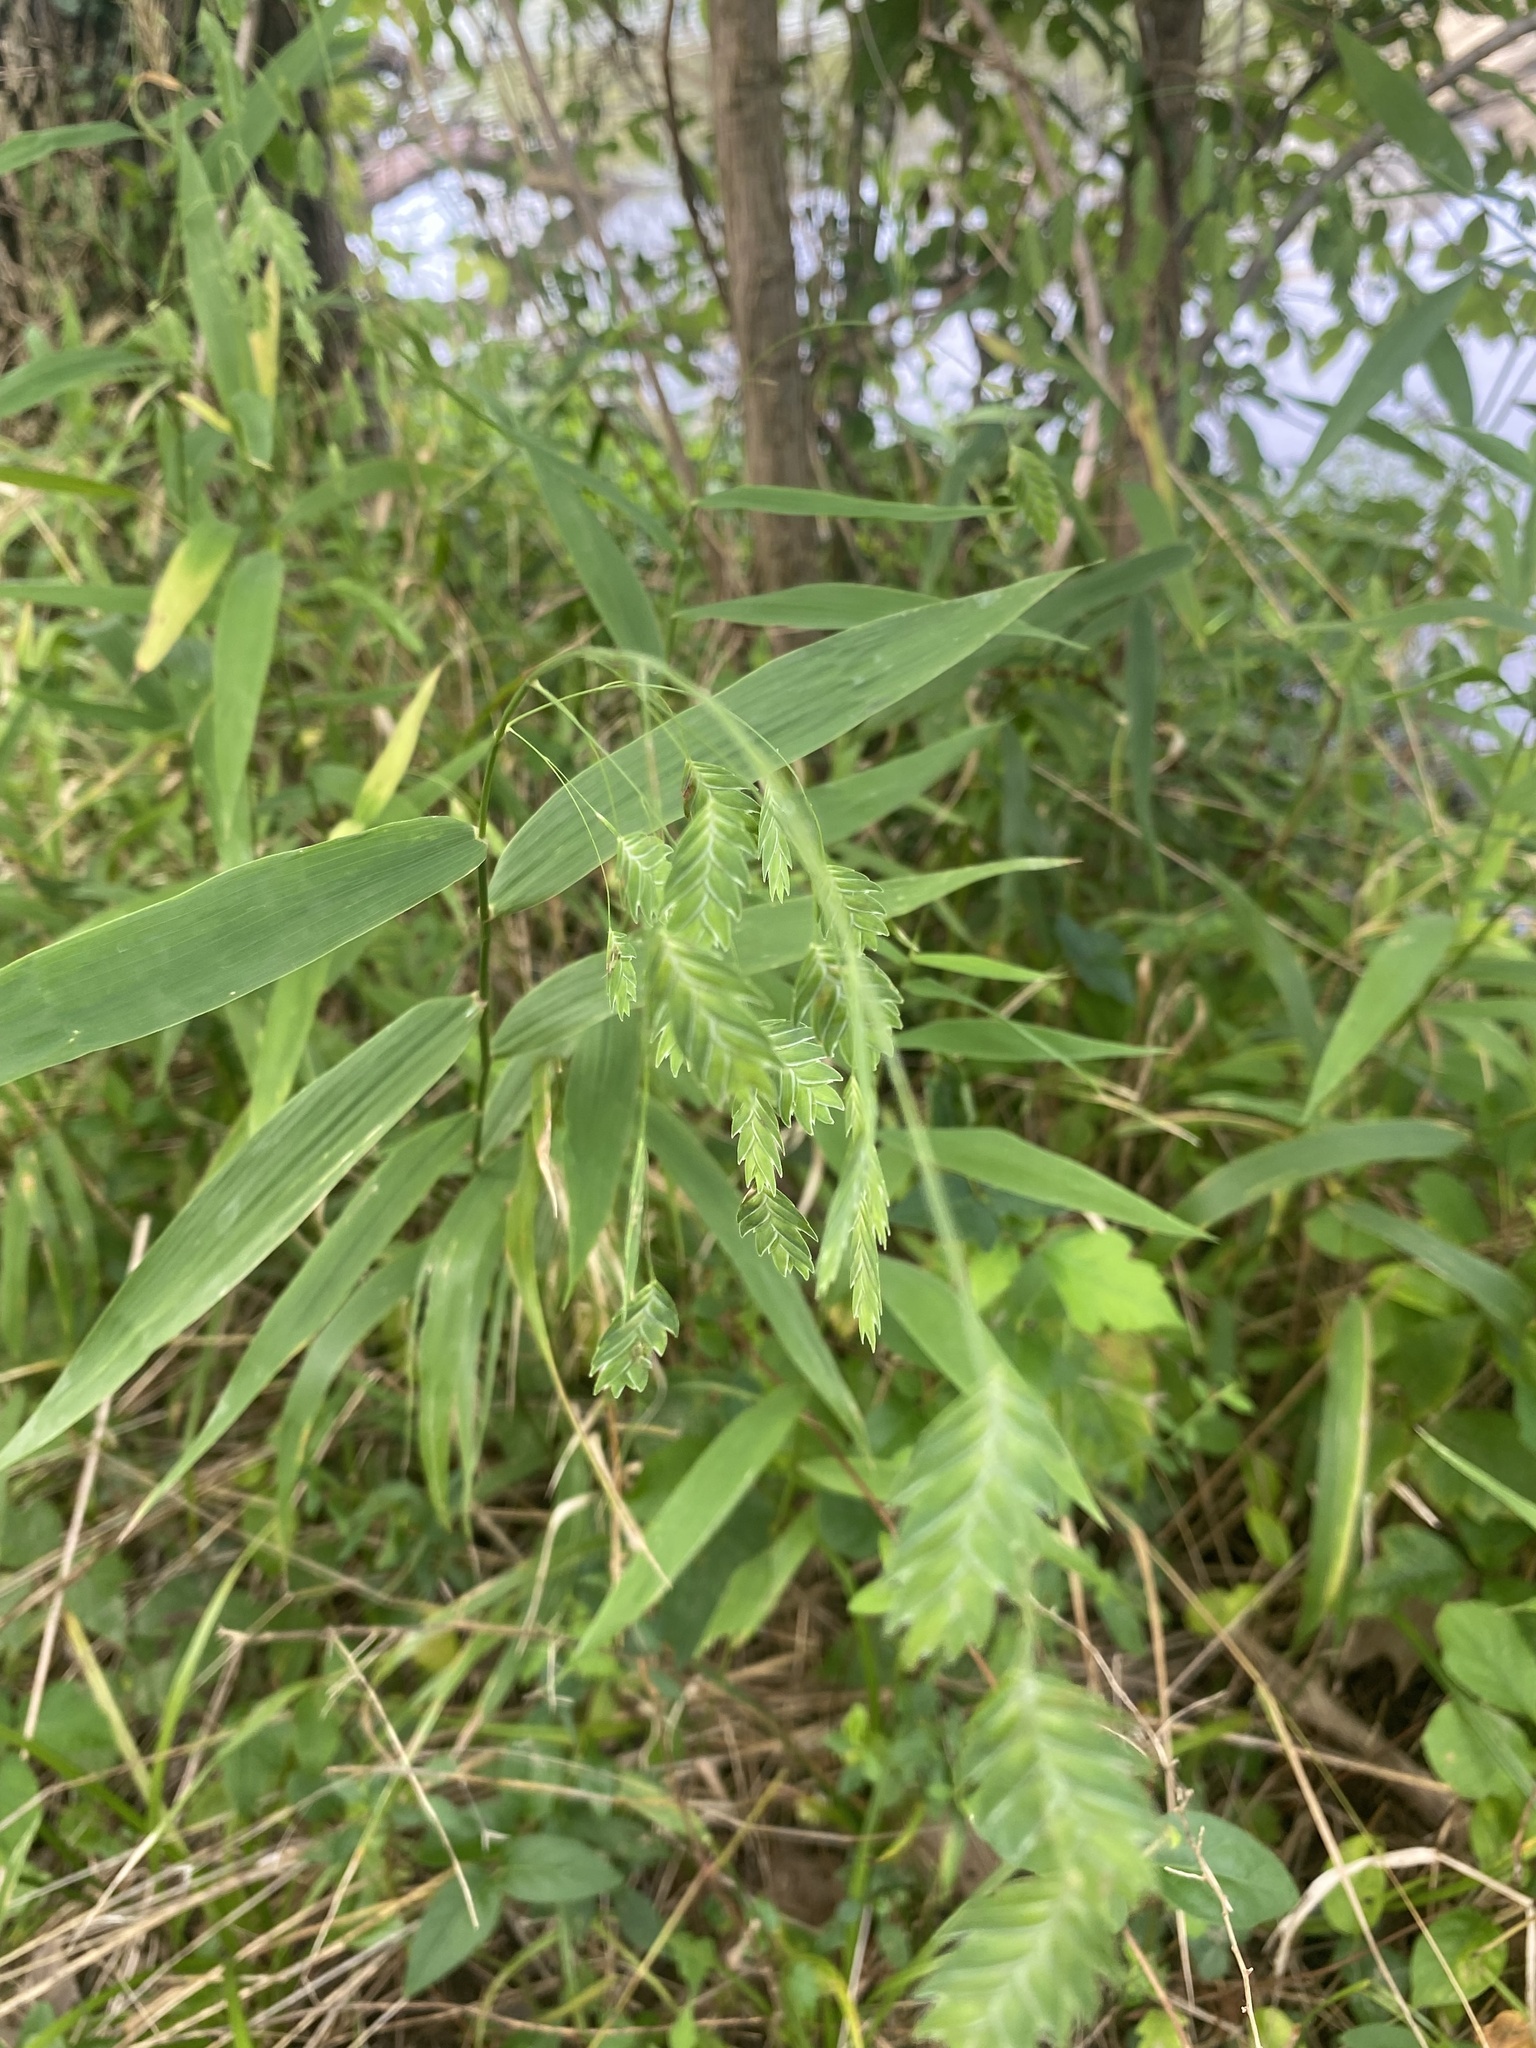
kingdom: Plantae
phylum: Tracheophyta
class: Liliopsida
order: Poales
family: Poaceae
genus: Chasmanthium
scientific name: Chasmanthium latifolium
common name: Broad-leaved chasmanthium
